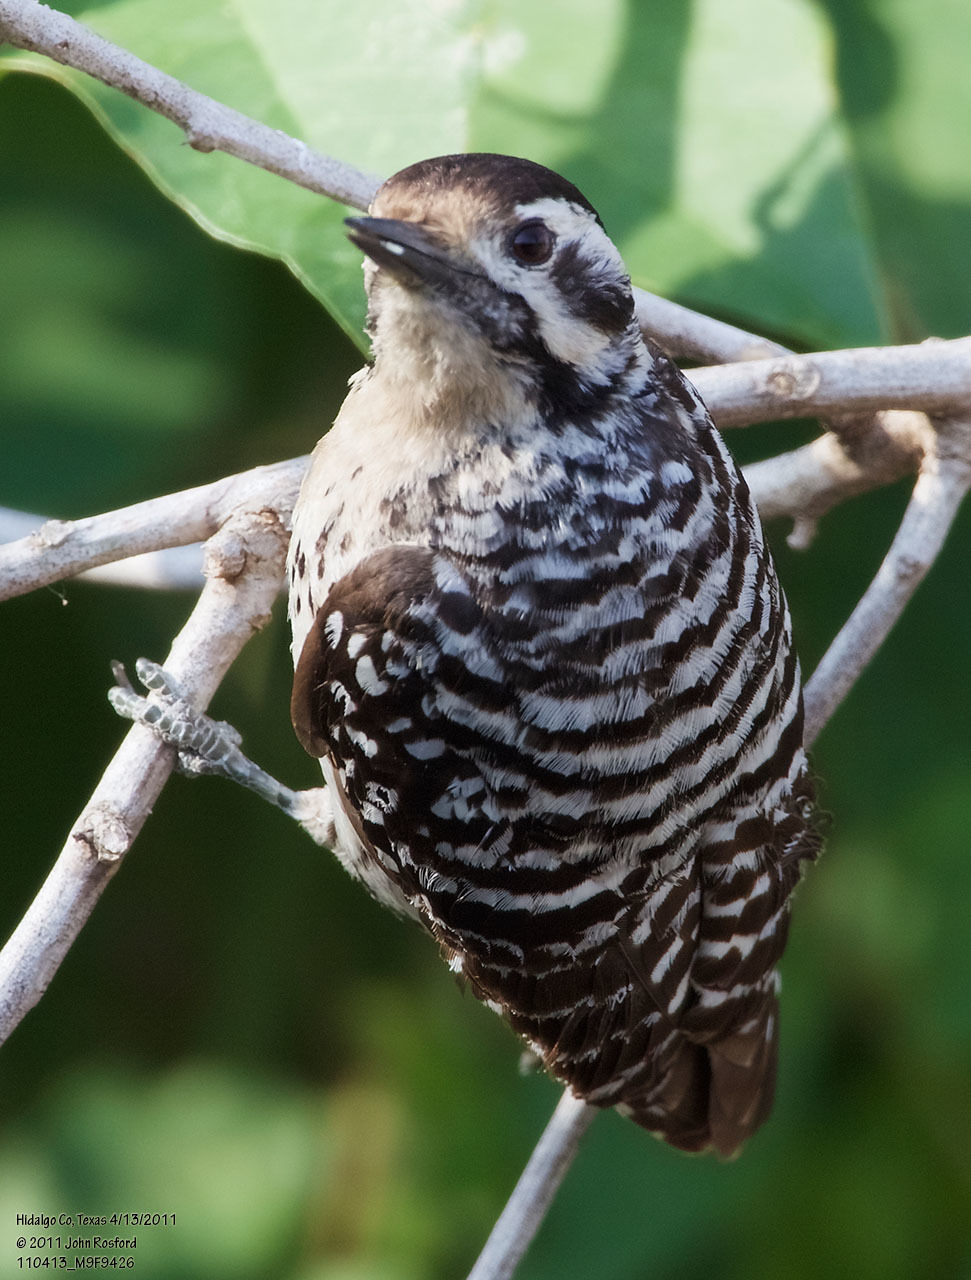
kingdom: Animalia
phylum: Chordata
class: Aves
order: Piciformes
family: Picidae
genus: Dryobates
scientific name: Dryobates scalaris
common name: Ladder-backed woodpecker
